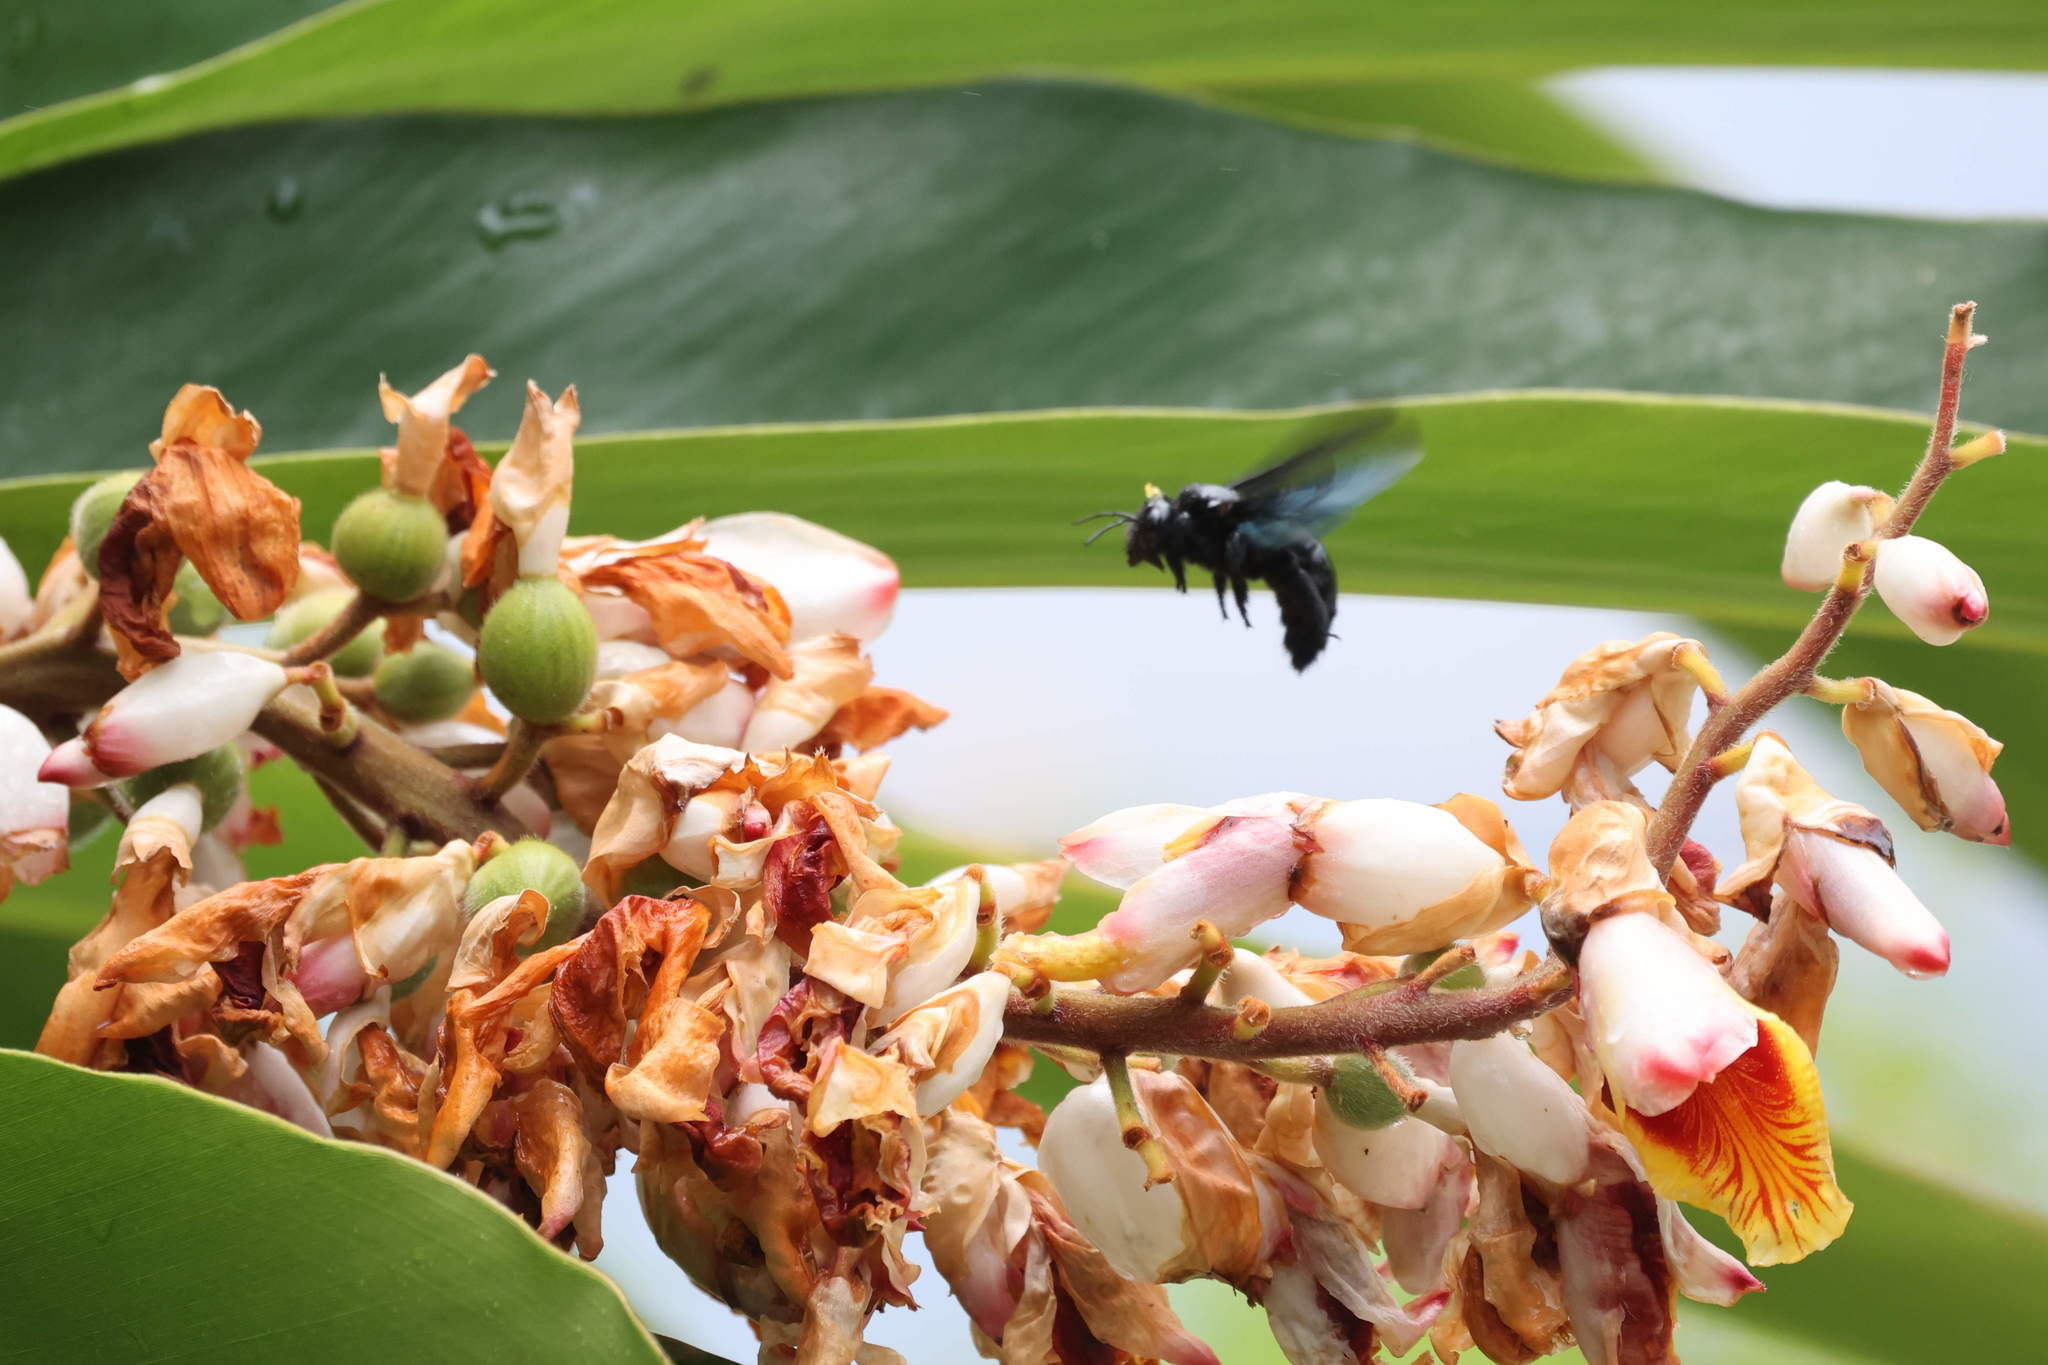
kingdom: Animalia
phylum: Arthropoda
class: Insecta
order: Hymenoptera
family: Apidae
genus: Xylocopa
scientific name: Xylocopa fimbriata
